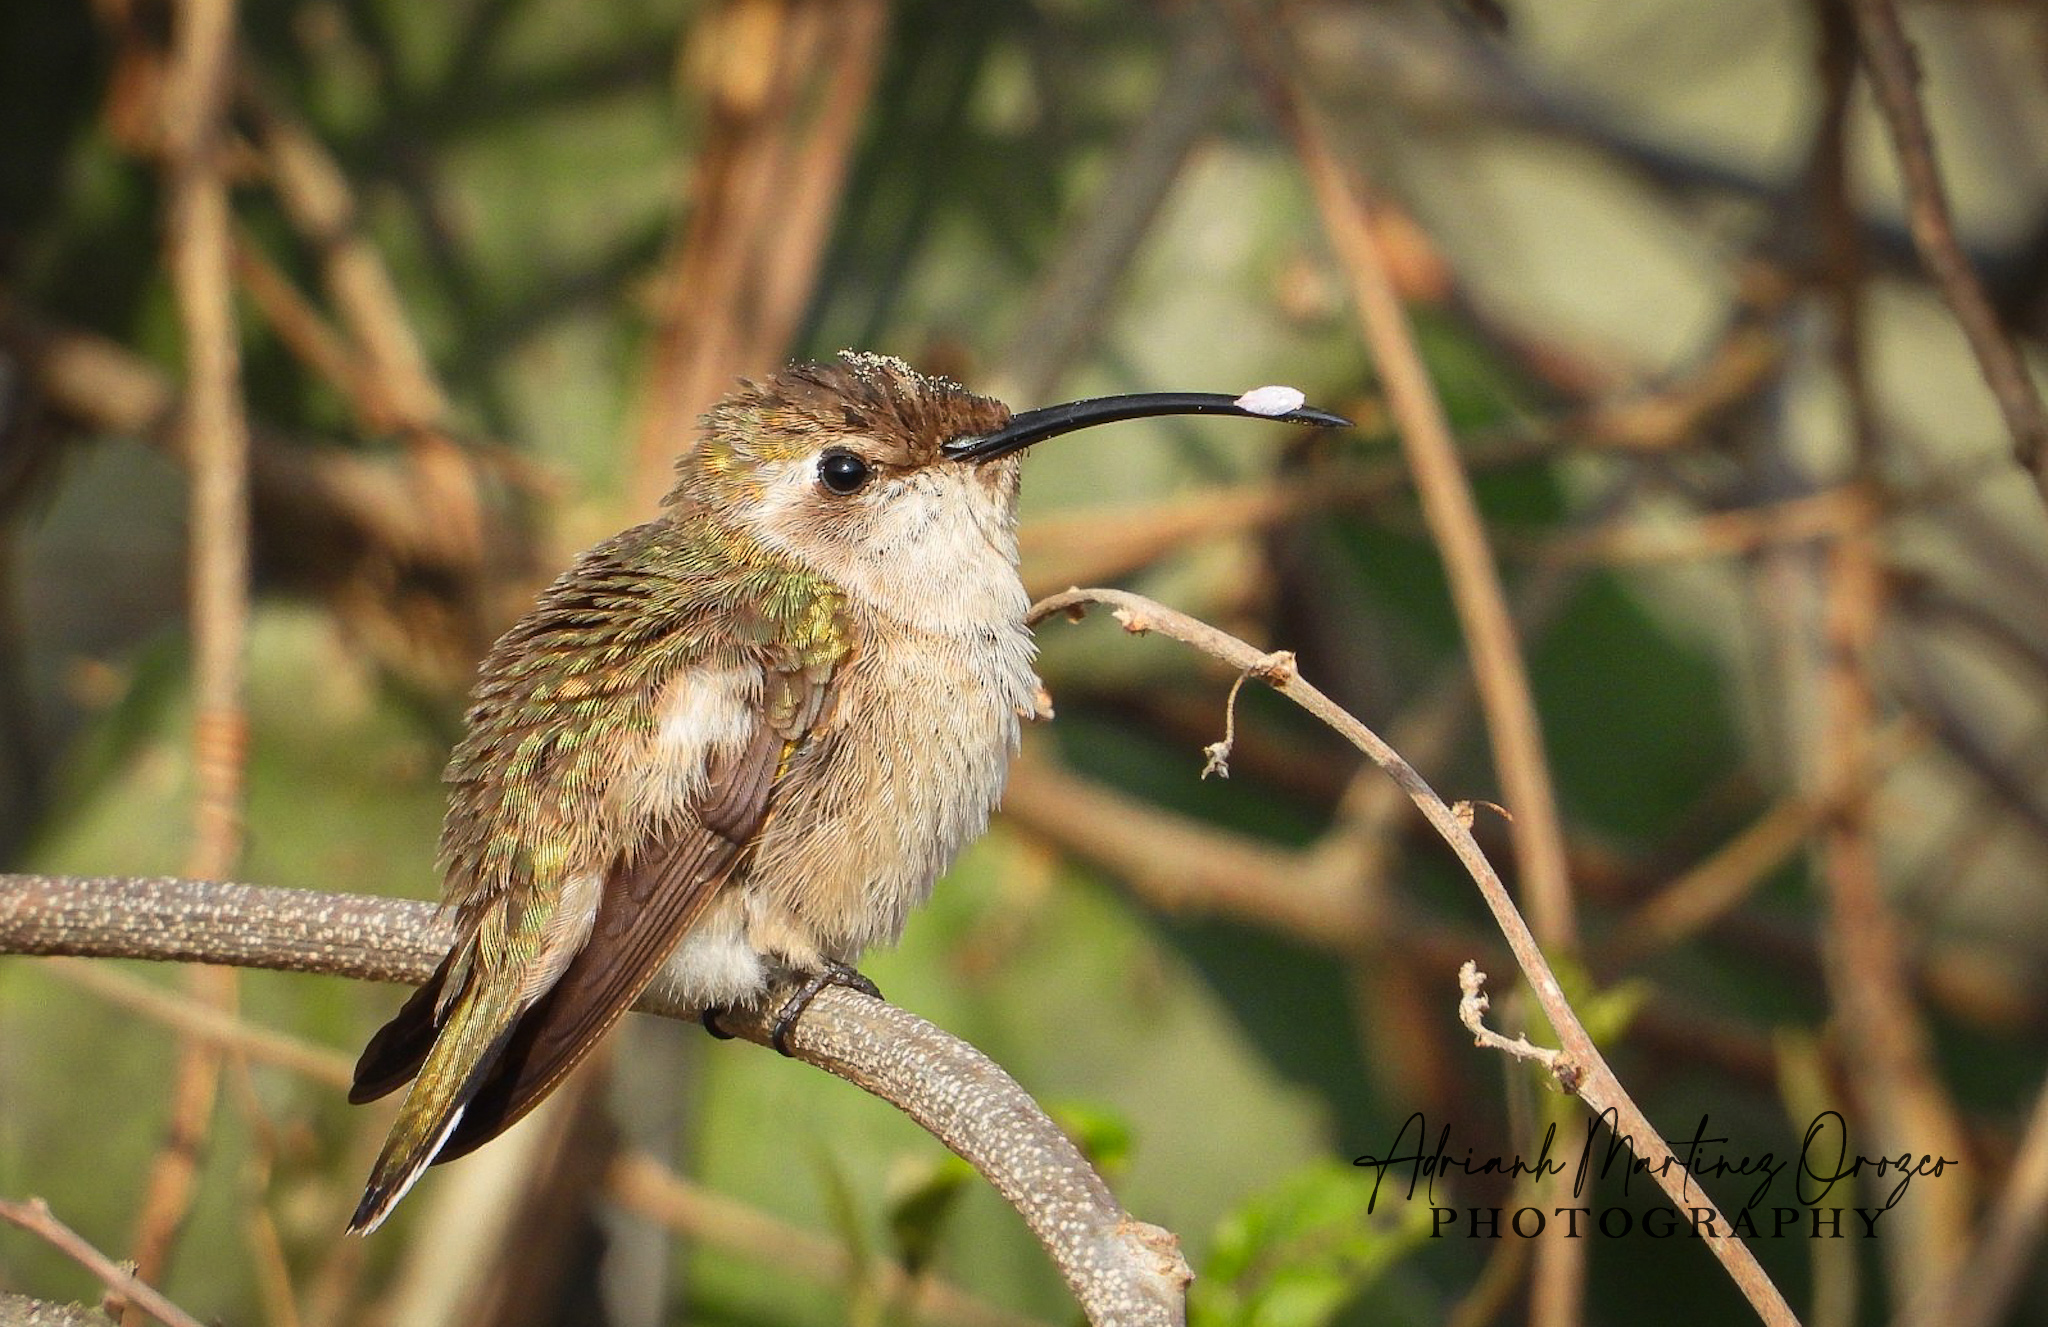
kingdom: Animalia
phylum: Chordata
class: Aves
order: Apodiformes
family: Trochilidae
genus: Doricha
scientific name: Doricha eliza
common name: Mexican sheartail
